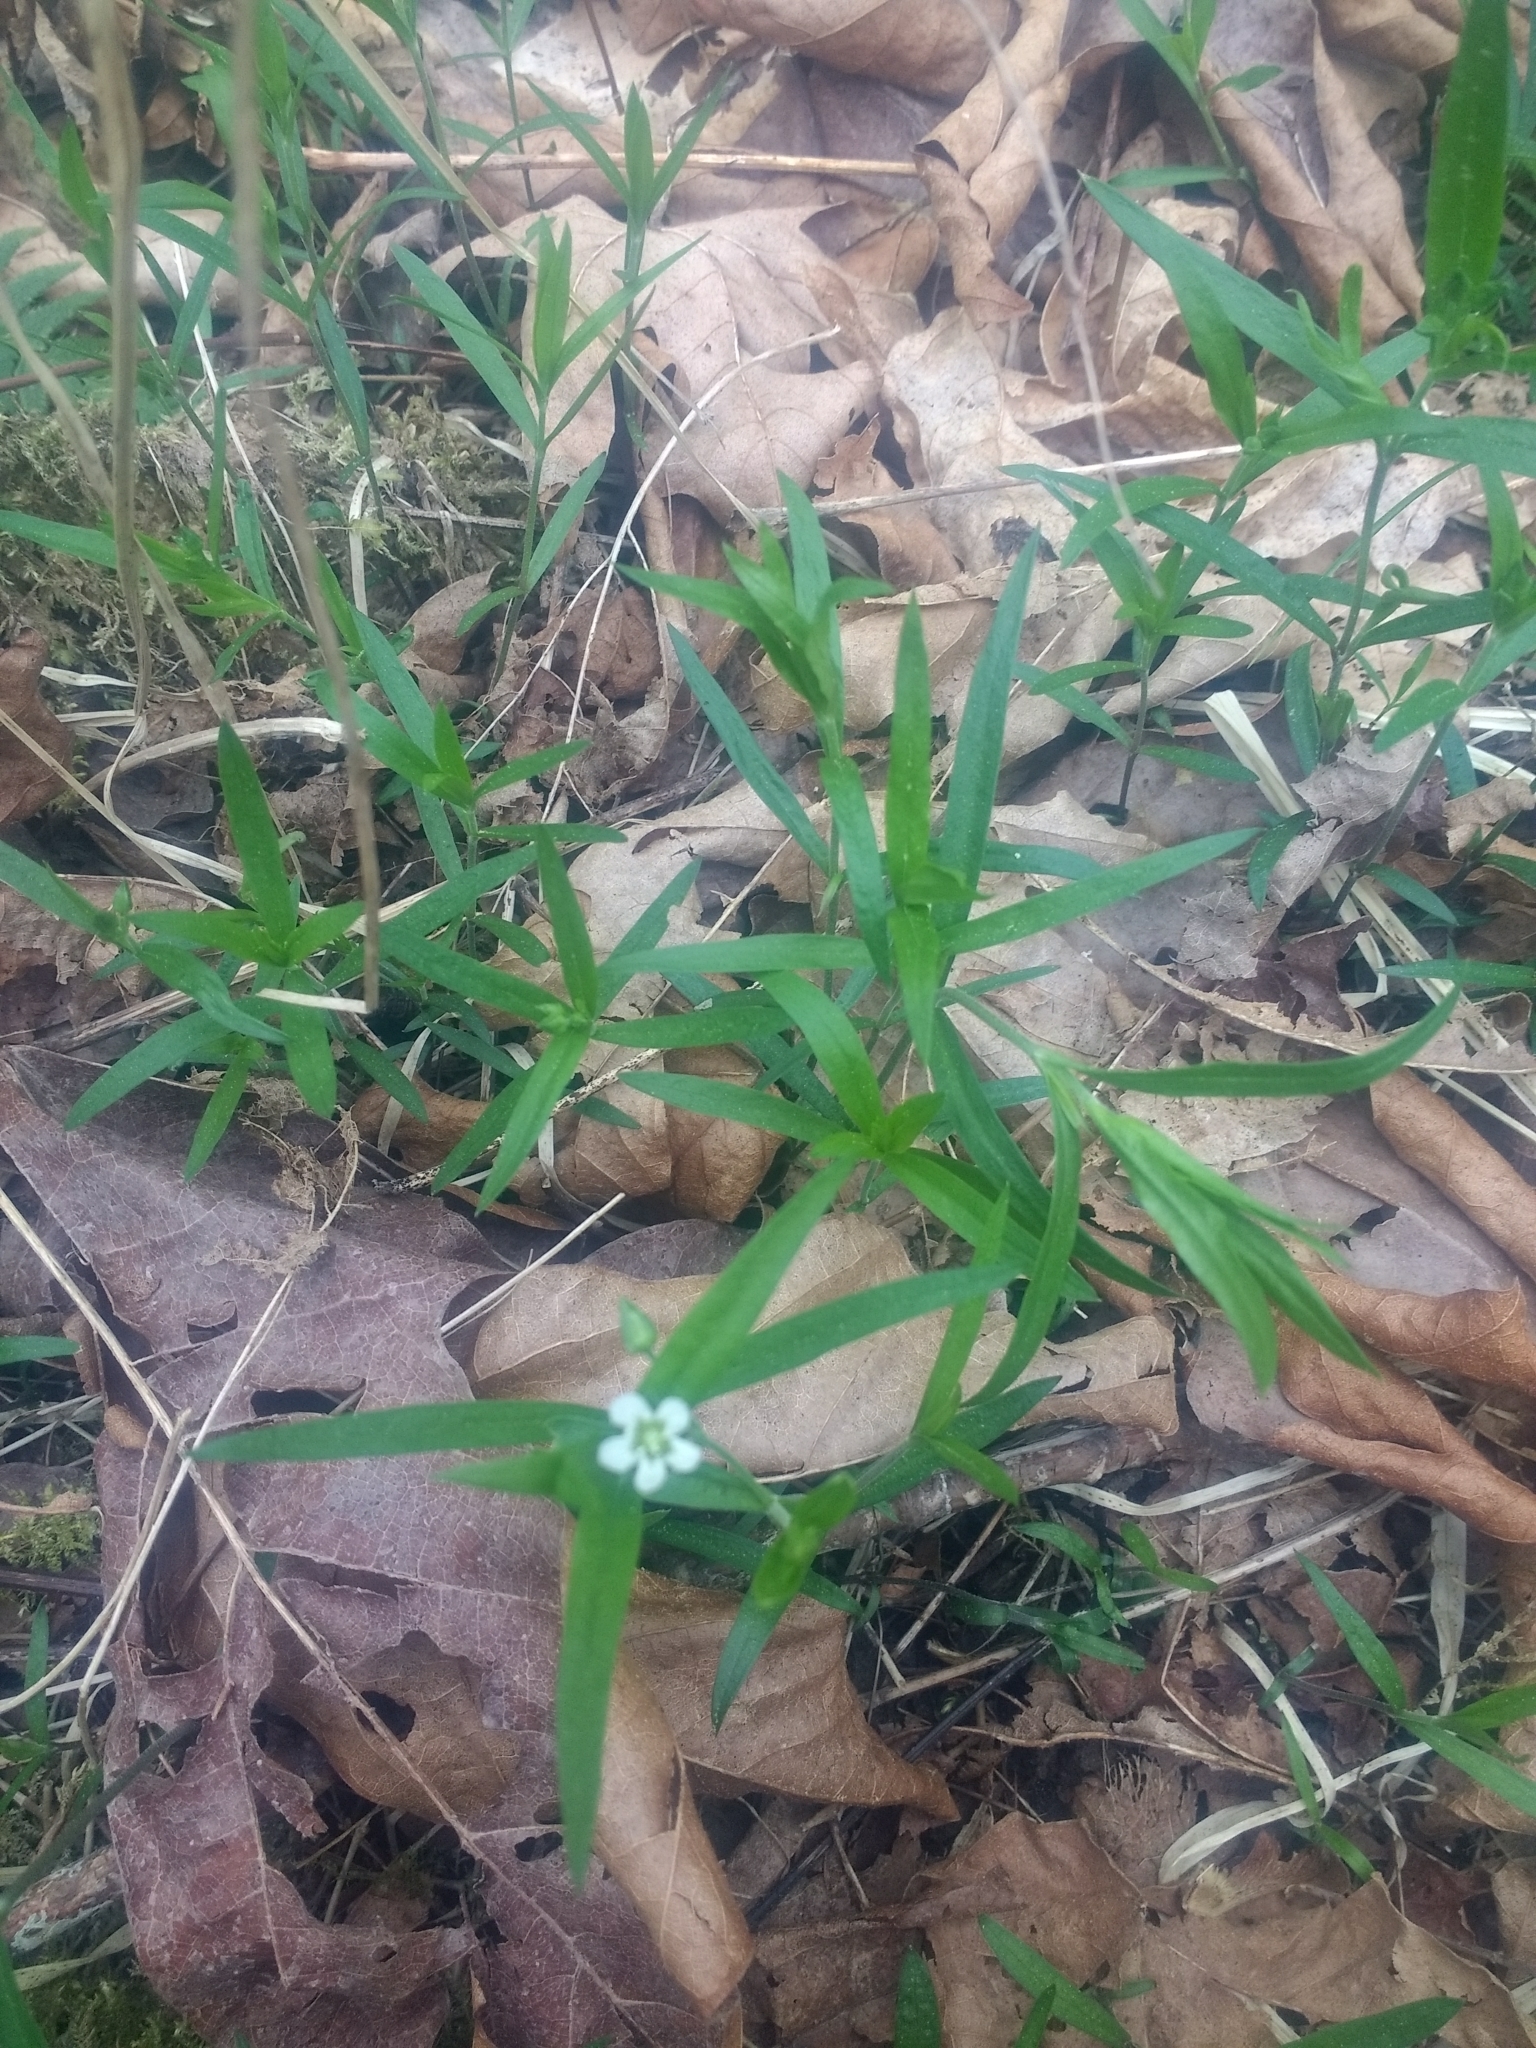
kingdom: Plantae
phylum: Tracheophyta
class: Magnoliopsida
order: Caryophyllales
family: Caryophyllaceae
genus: Moehringia
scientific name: Moehringia macrophylla
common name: Big-leaf sandwort
